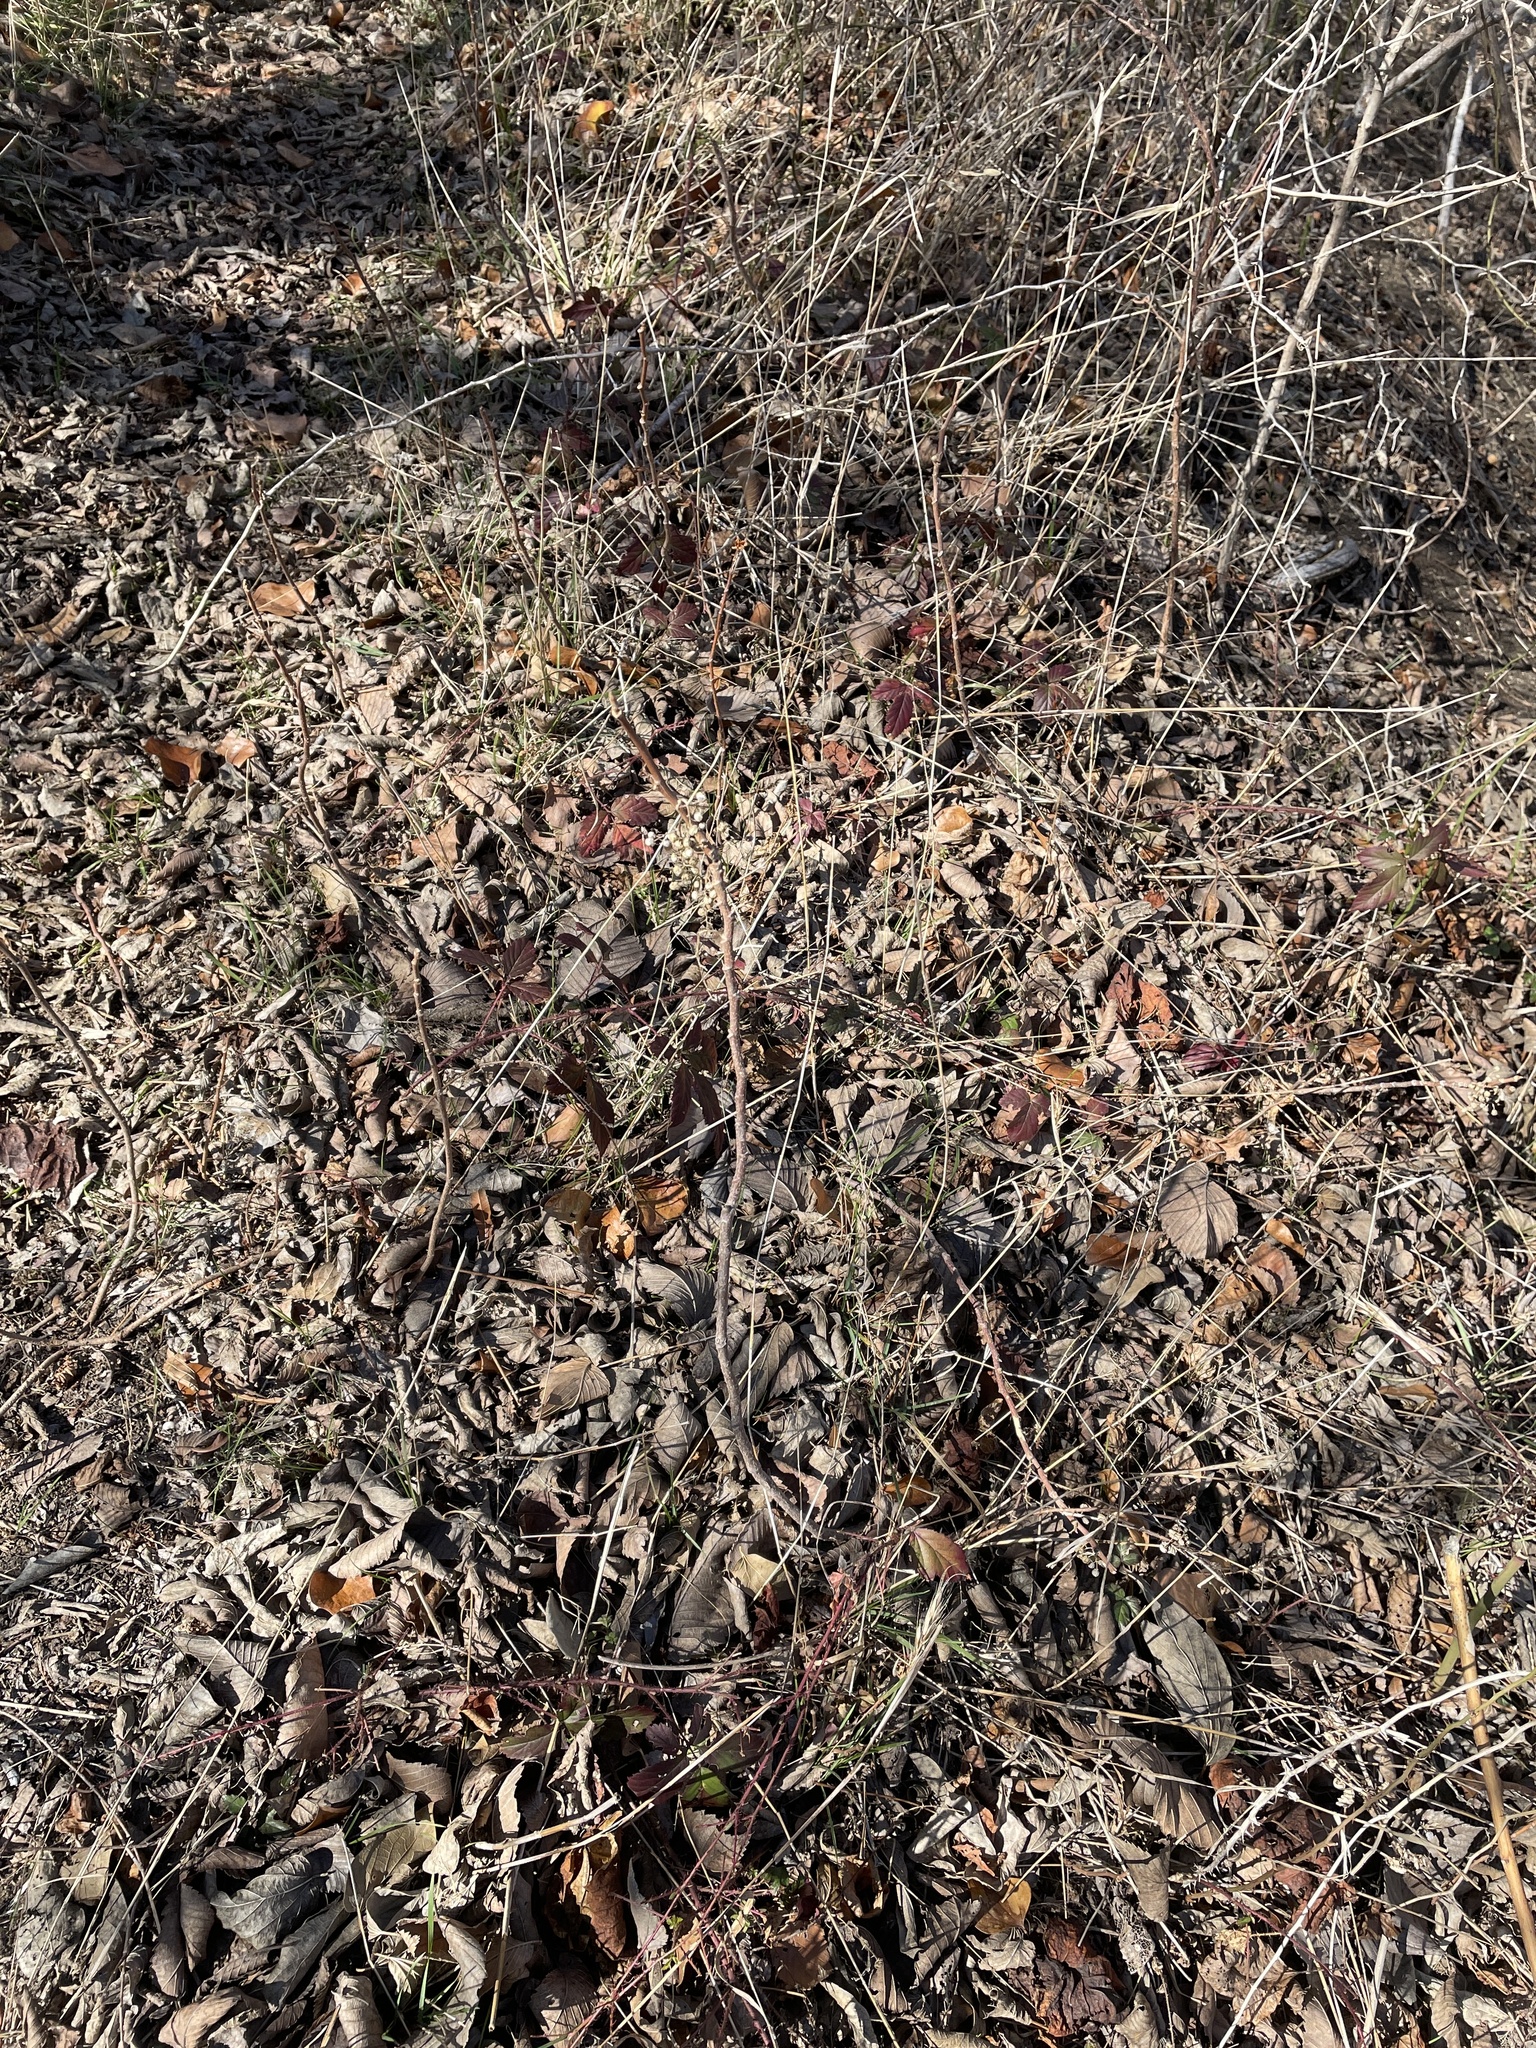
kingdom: Plantae
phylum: Tracheophyta
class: Magnoliopsida
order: Sapindales
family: Anacardiaceae
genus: Toxicodendron
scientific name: Toxicodendron radicans
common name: Poison ivy
